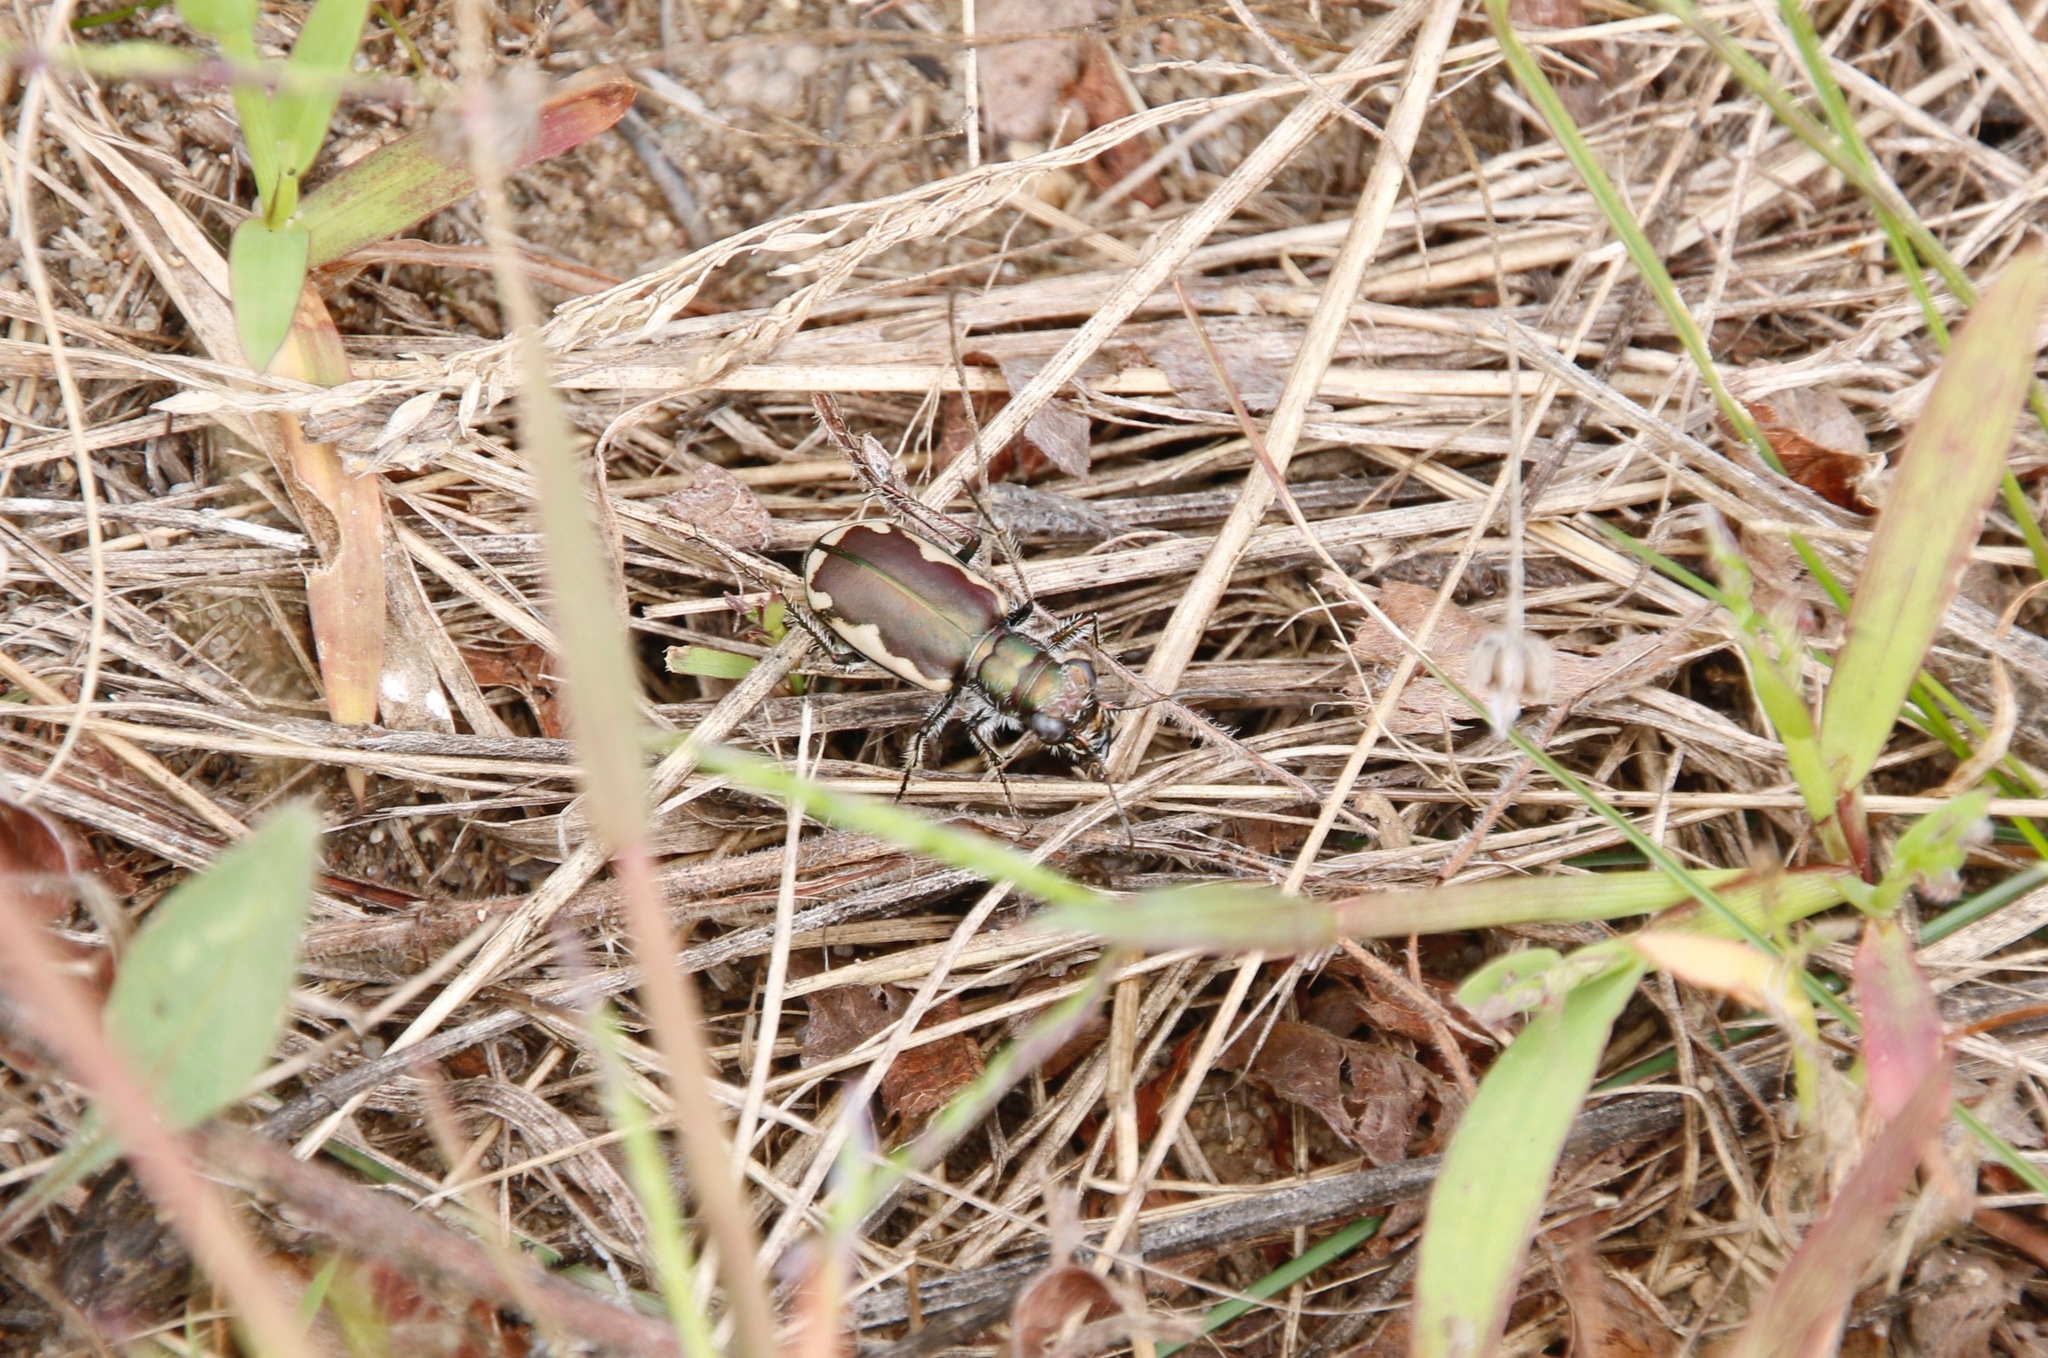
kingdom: Animalia
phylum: Arthropoda
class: Insecta
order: Coleoptera
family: Carabidae
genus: Cicindela
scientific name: Cicindela scutellaris
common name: Festive tiger beetle
